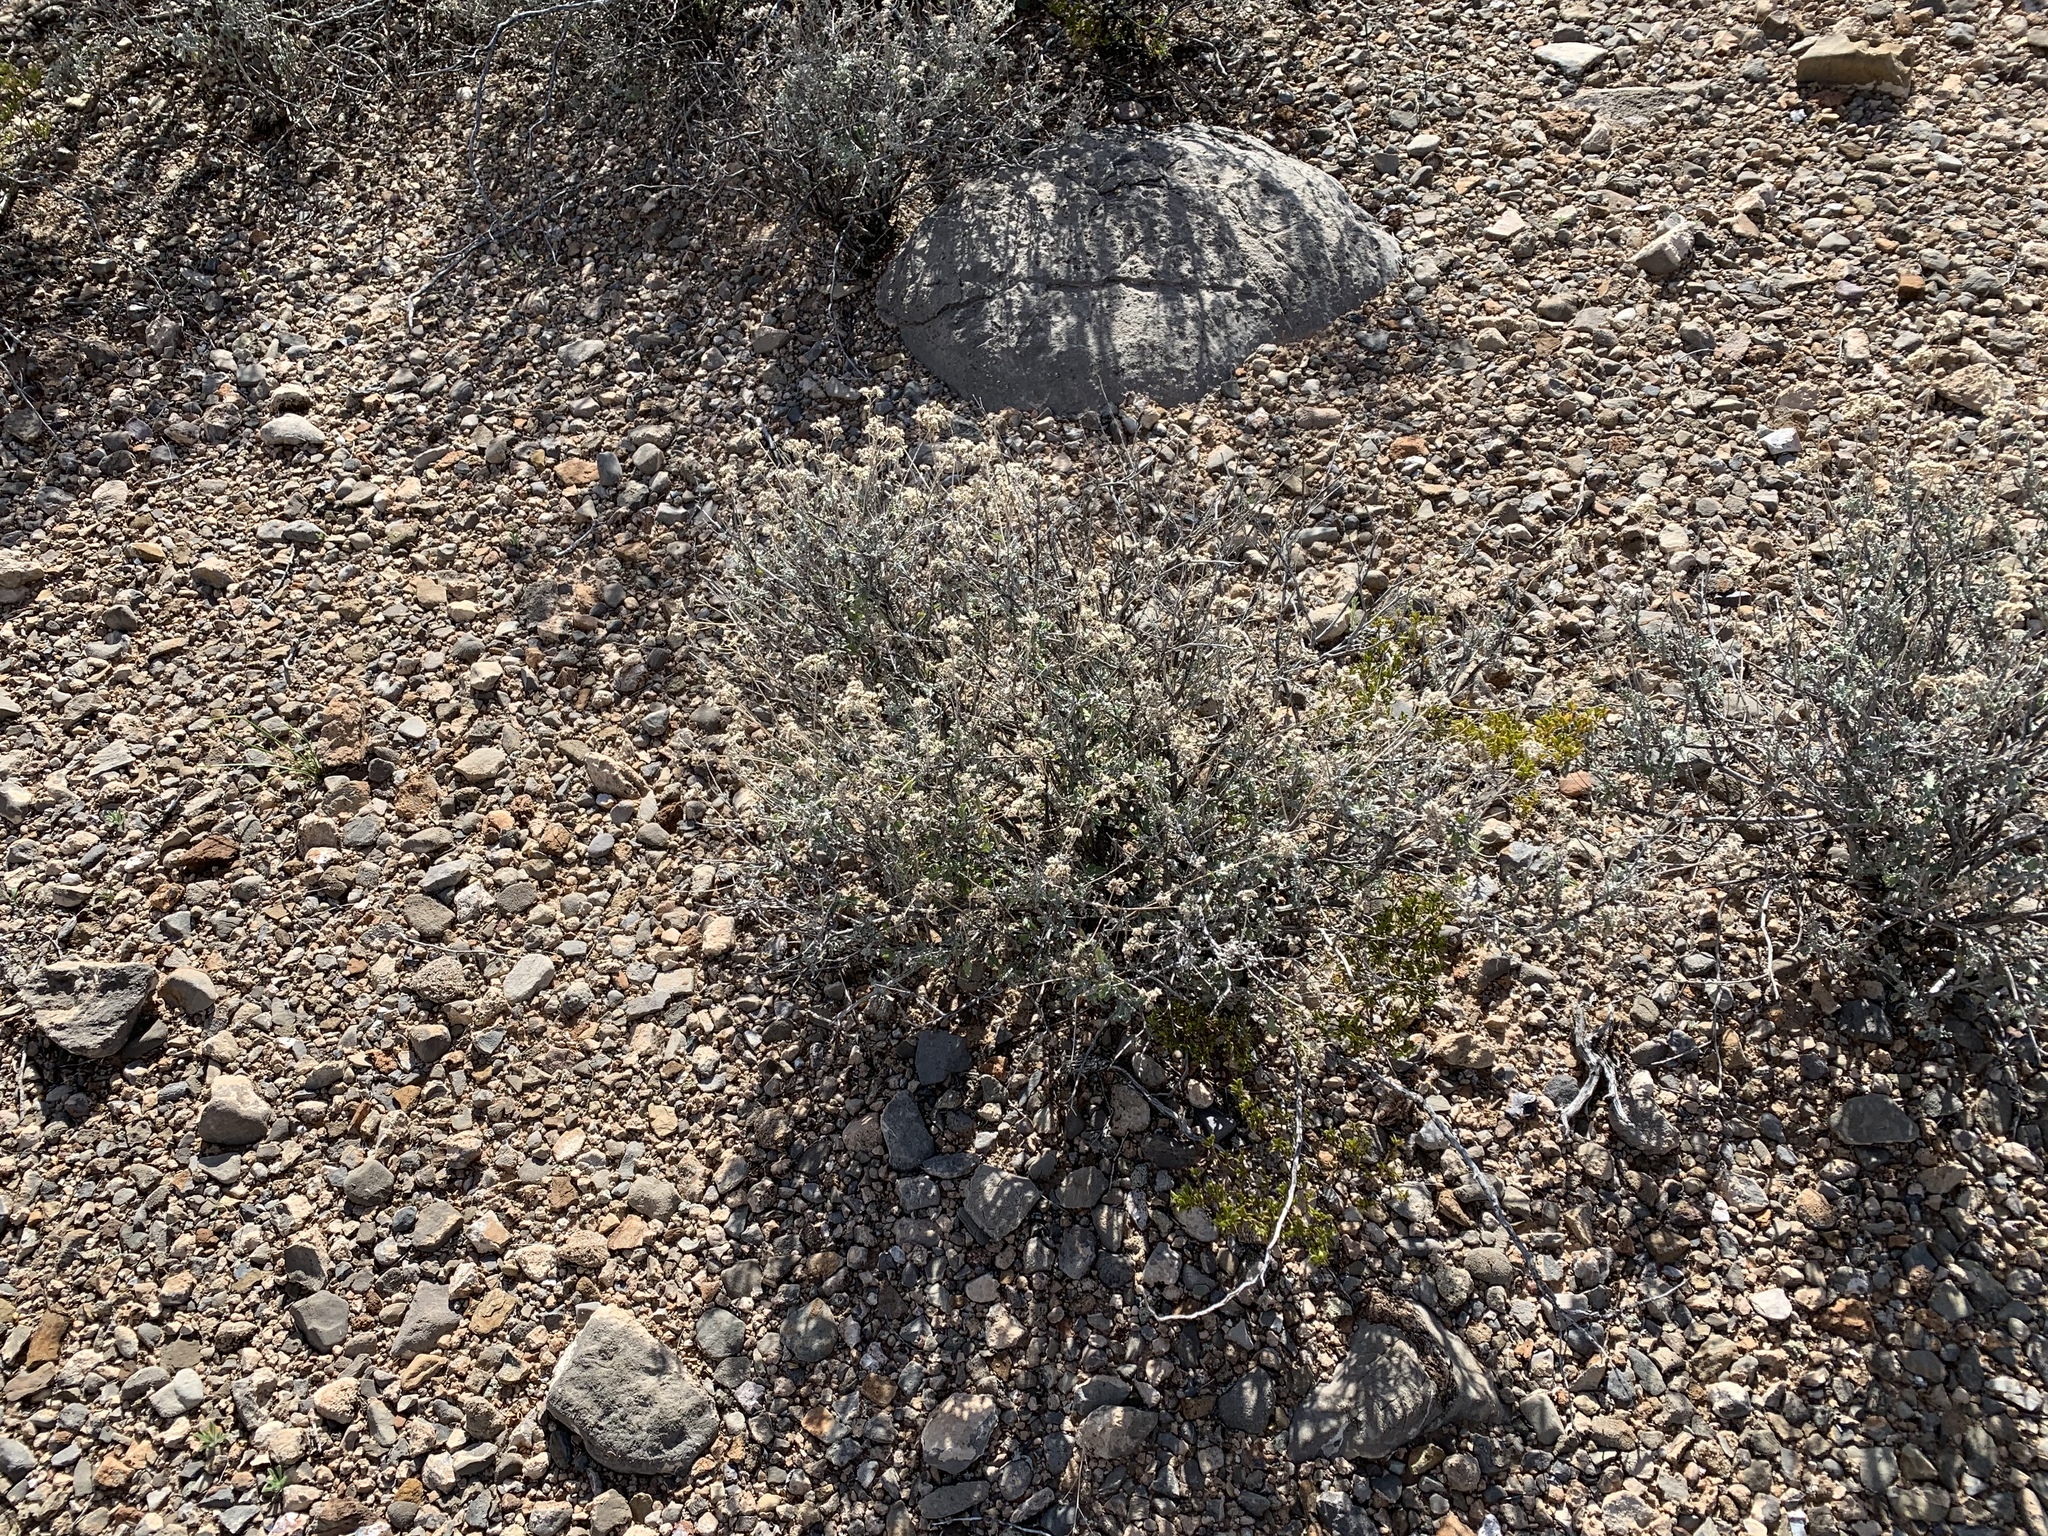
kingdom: Plantae
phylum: Tracheophyta
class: Magnoliopsida
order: Asterales
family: Asteraceae
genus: Parthenium
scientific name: Parthenium incanum
